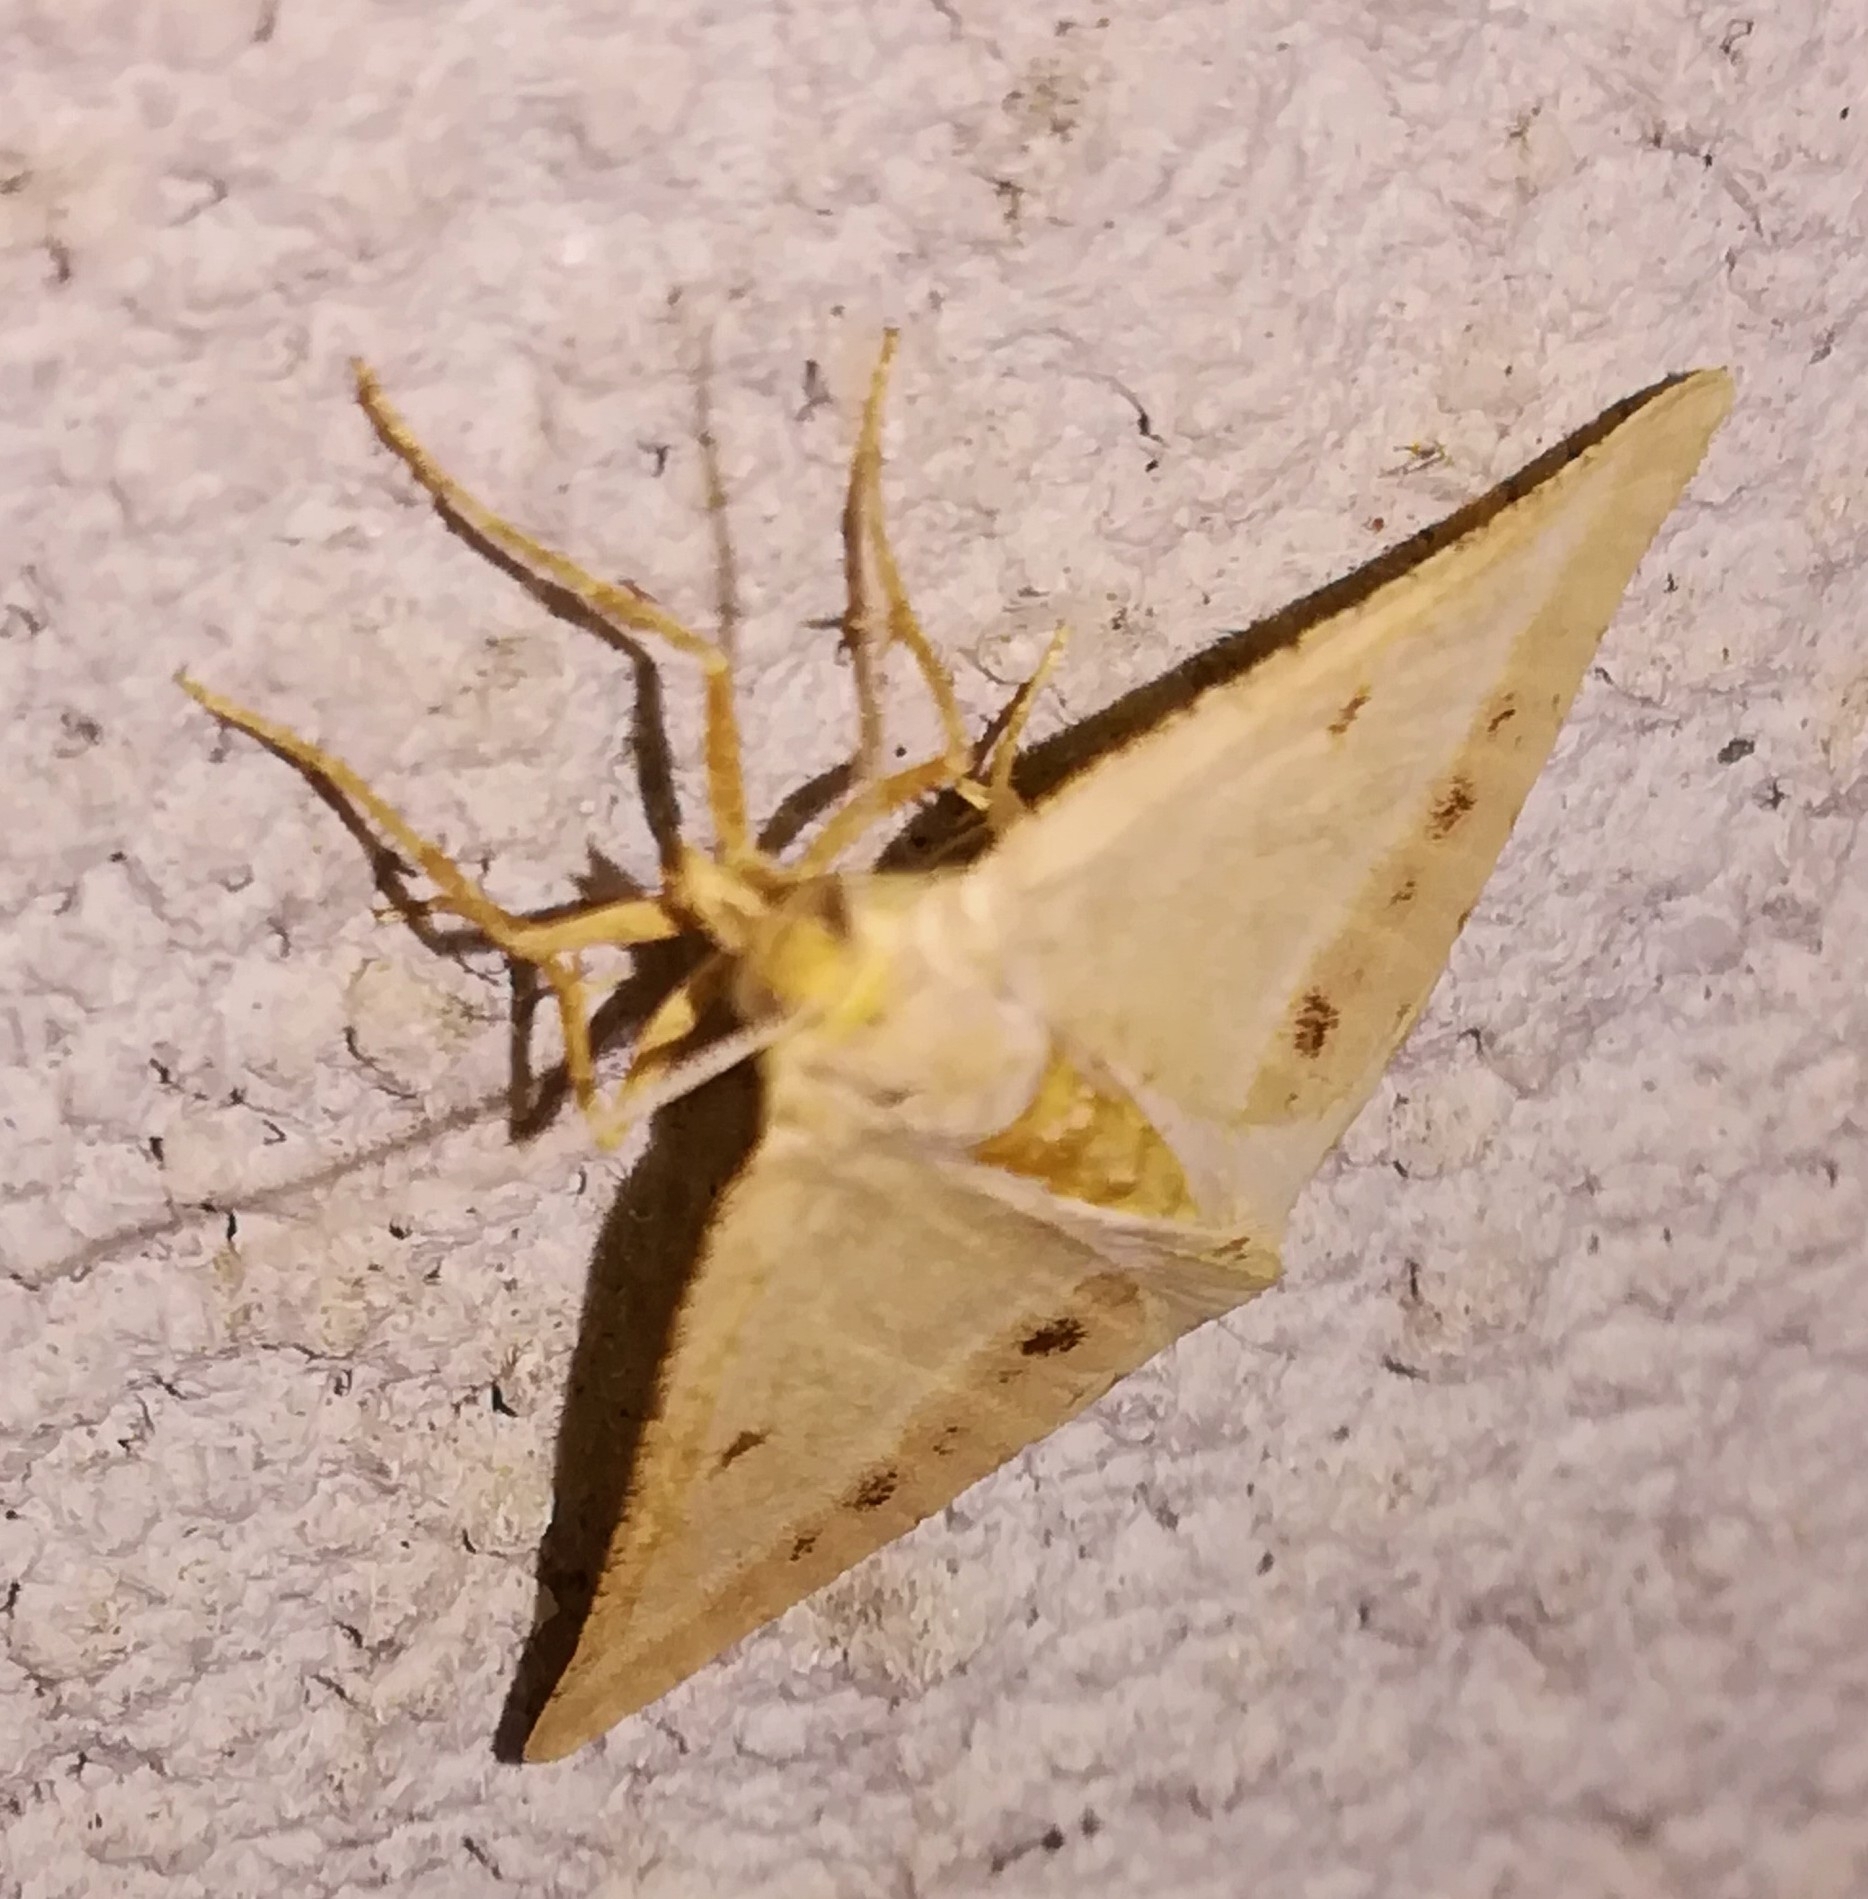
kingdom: Animalia
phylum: Arthropoda
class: Insecta
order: Lepidoptera
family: Geometridae
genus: Tephrina
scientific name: Tephrina arenacearia
